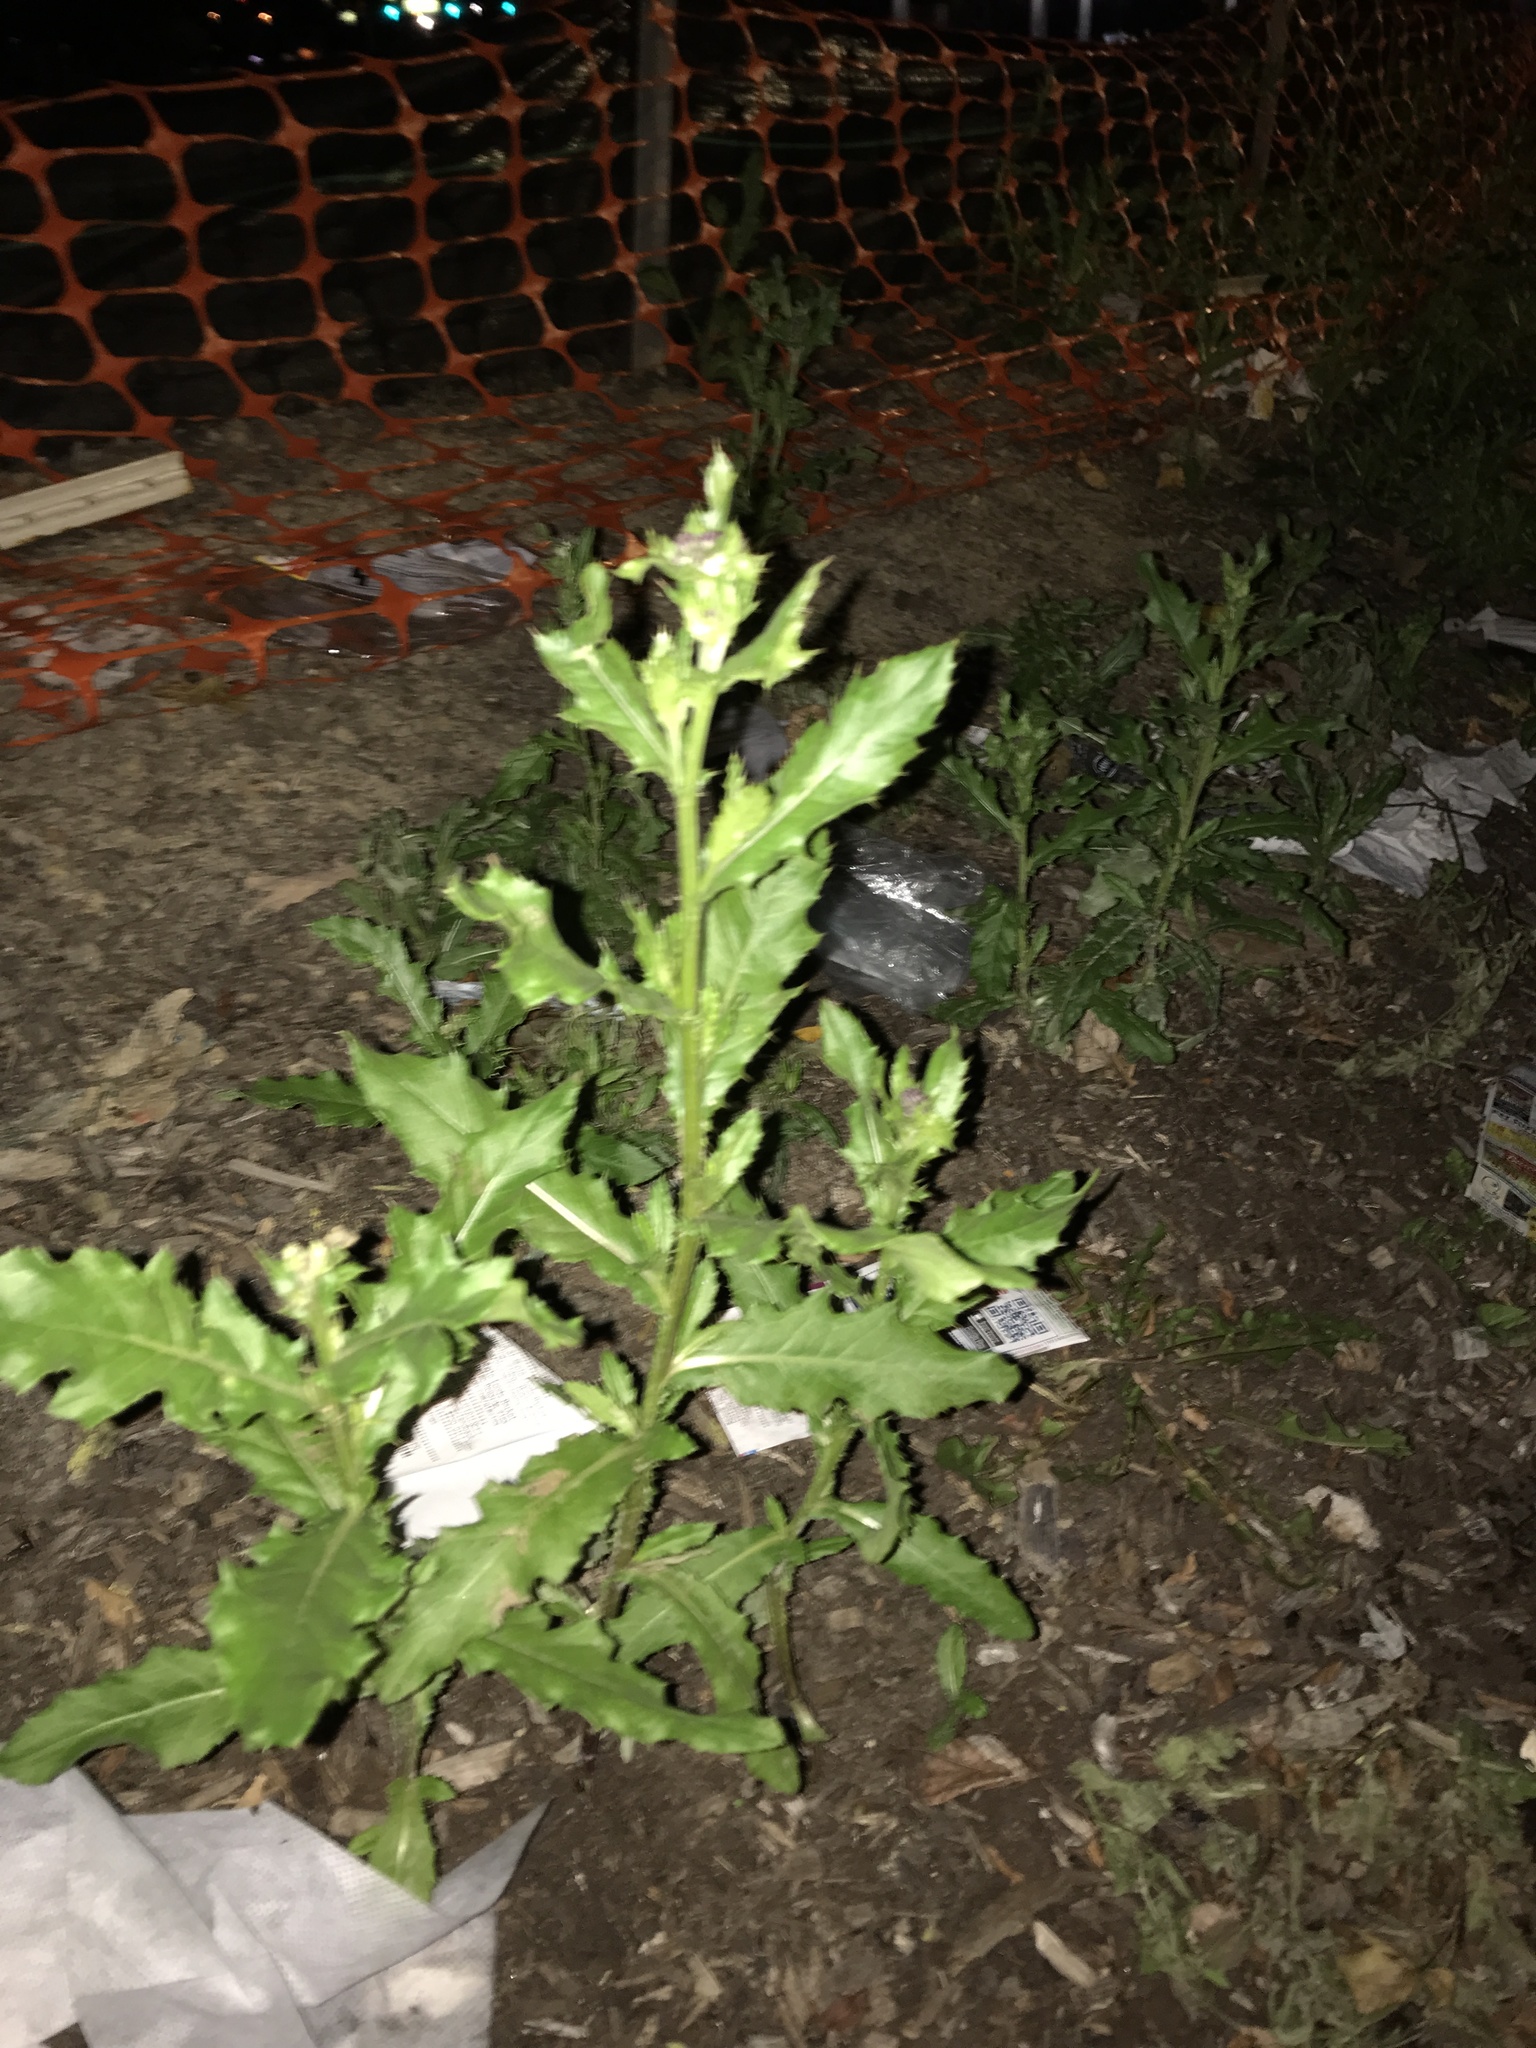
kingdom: Plantae
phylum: Tracheophyta
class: Magnoliopsida
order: Asterales
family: Asteraceae
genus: Cirsium
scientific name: Cirsium arvense
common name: Creeping thistle
